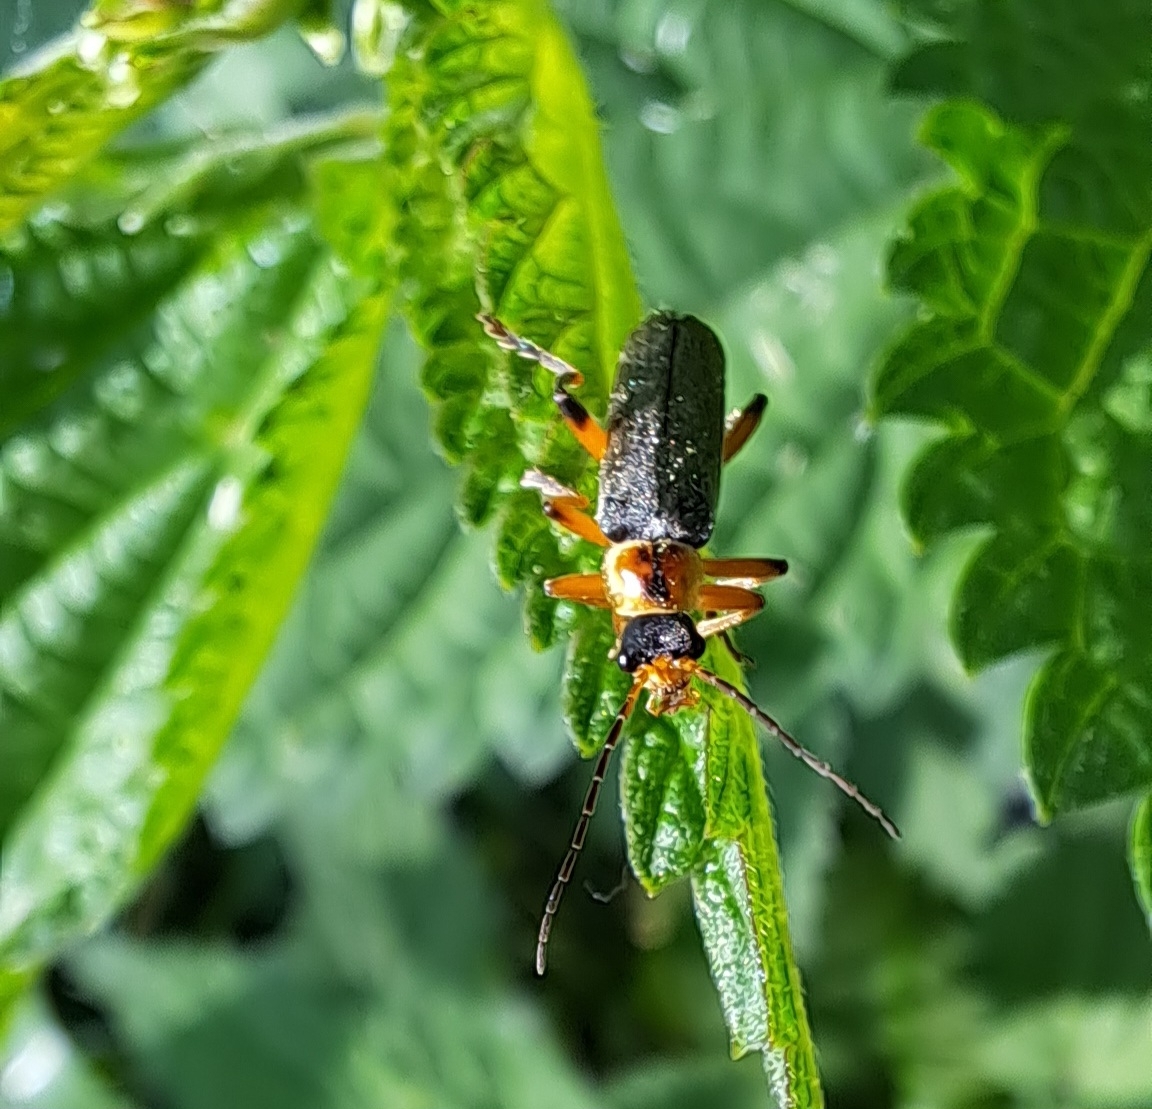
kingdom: Animalia
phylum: Arthropoda
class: Insecta
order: Coleoptera
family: Cantharidae
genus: Cantharis
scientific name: Cantharis nigricans
